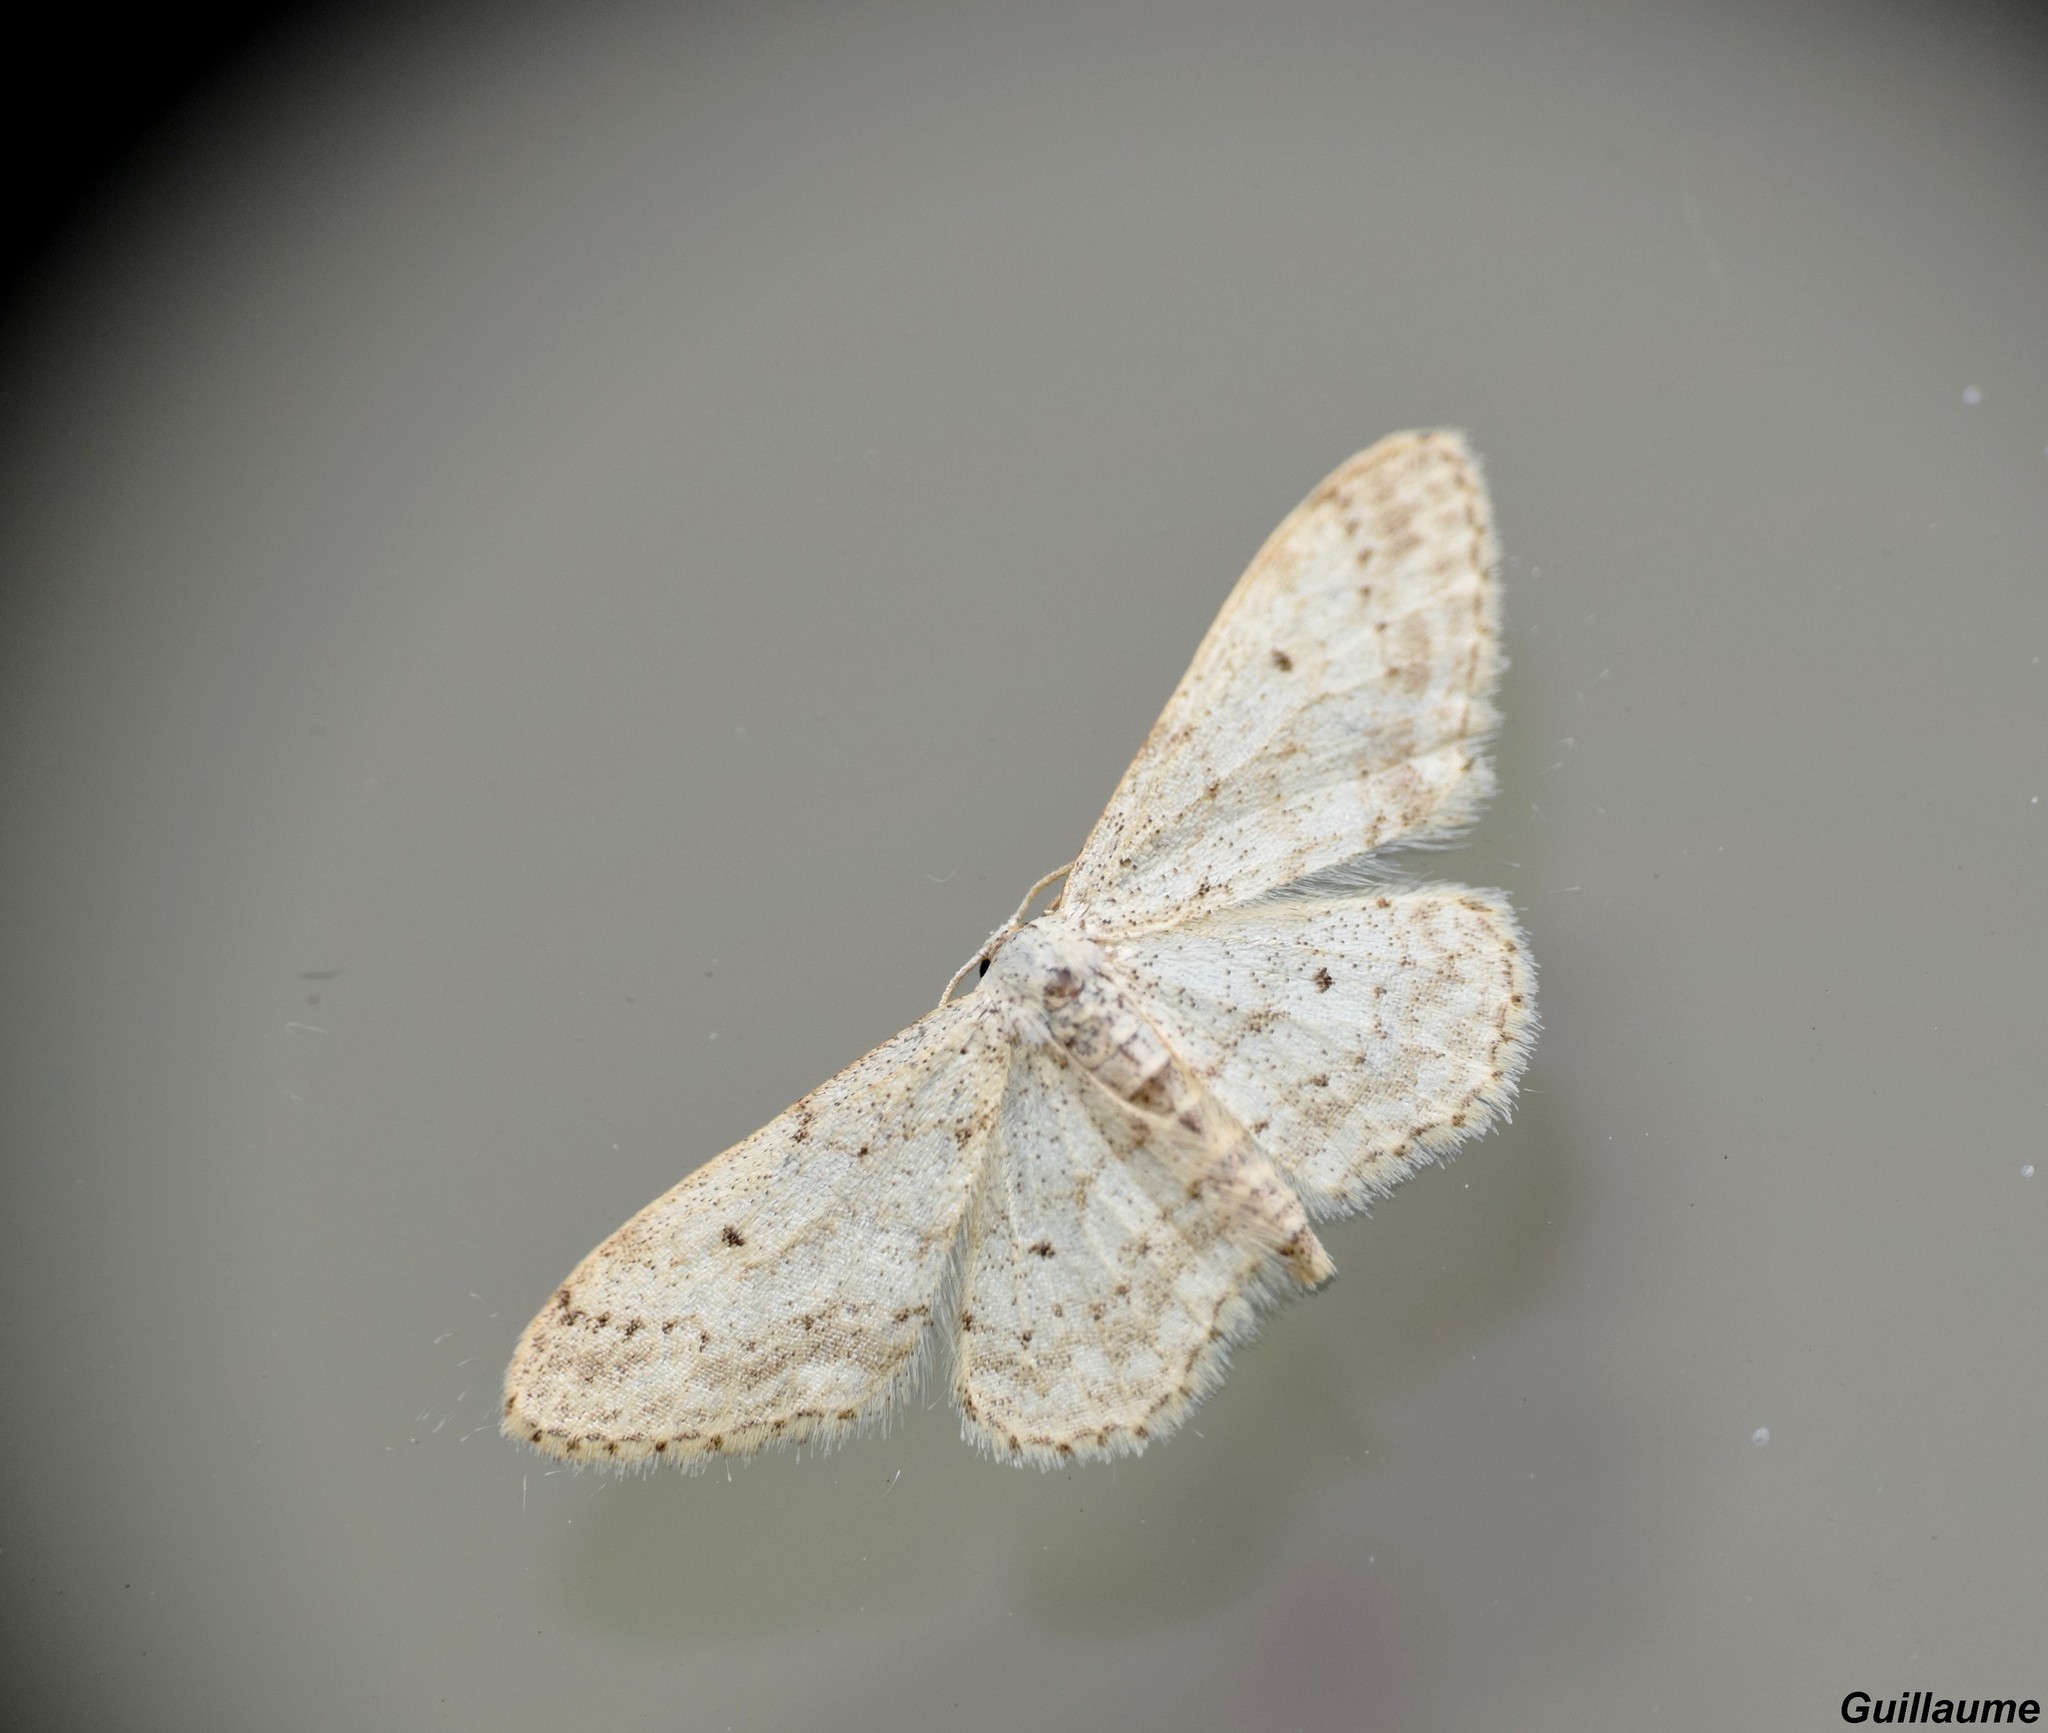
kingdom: Animalia
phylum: Arthropoda
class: Insecta
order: Lepidoptera
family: Geometridae
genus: Idaea
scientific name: Idaea seriata
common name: Small dusty wave
